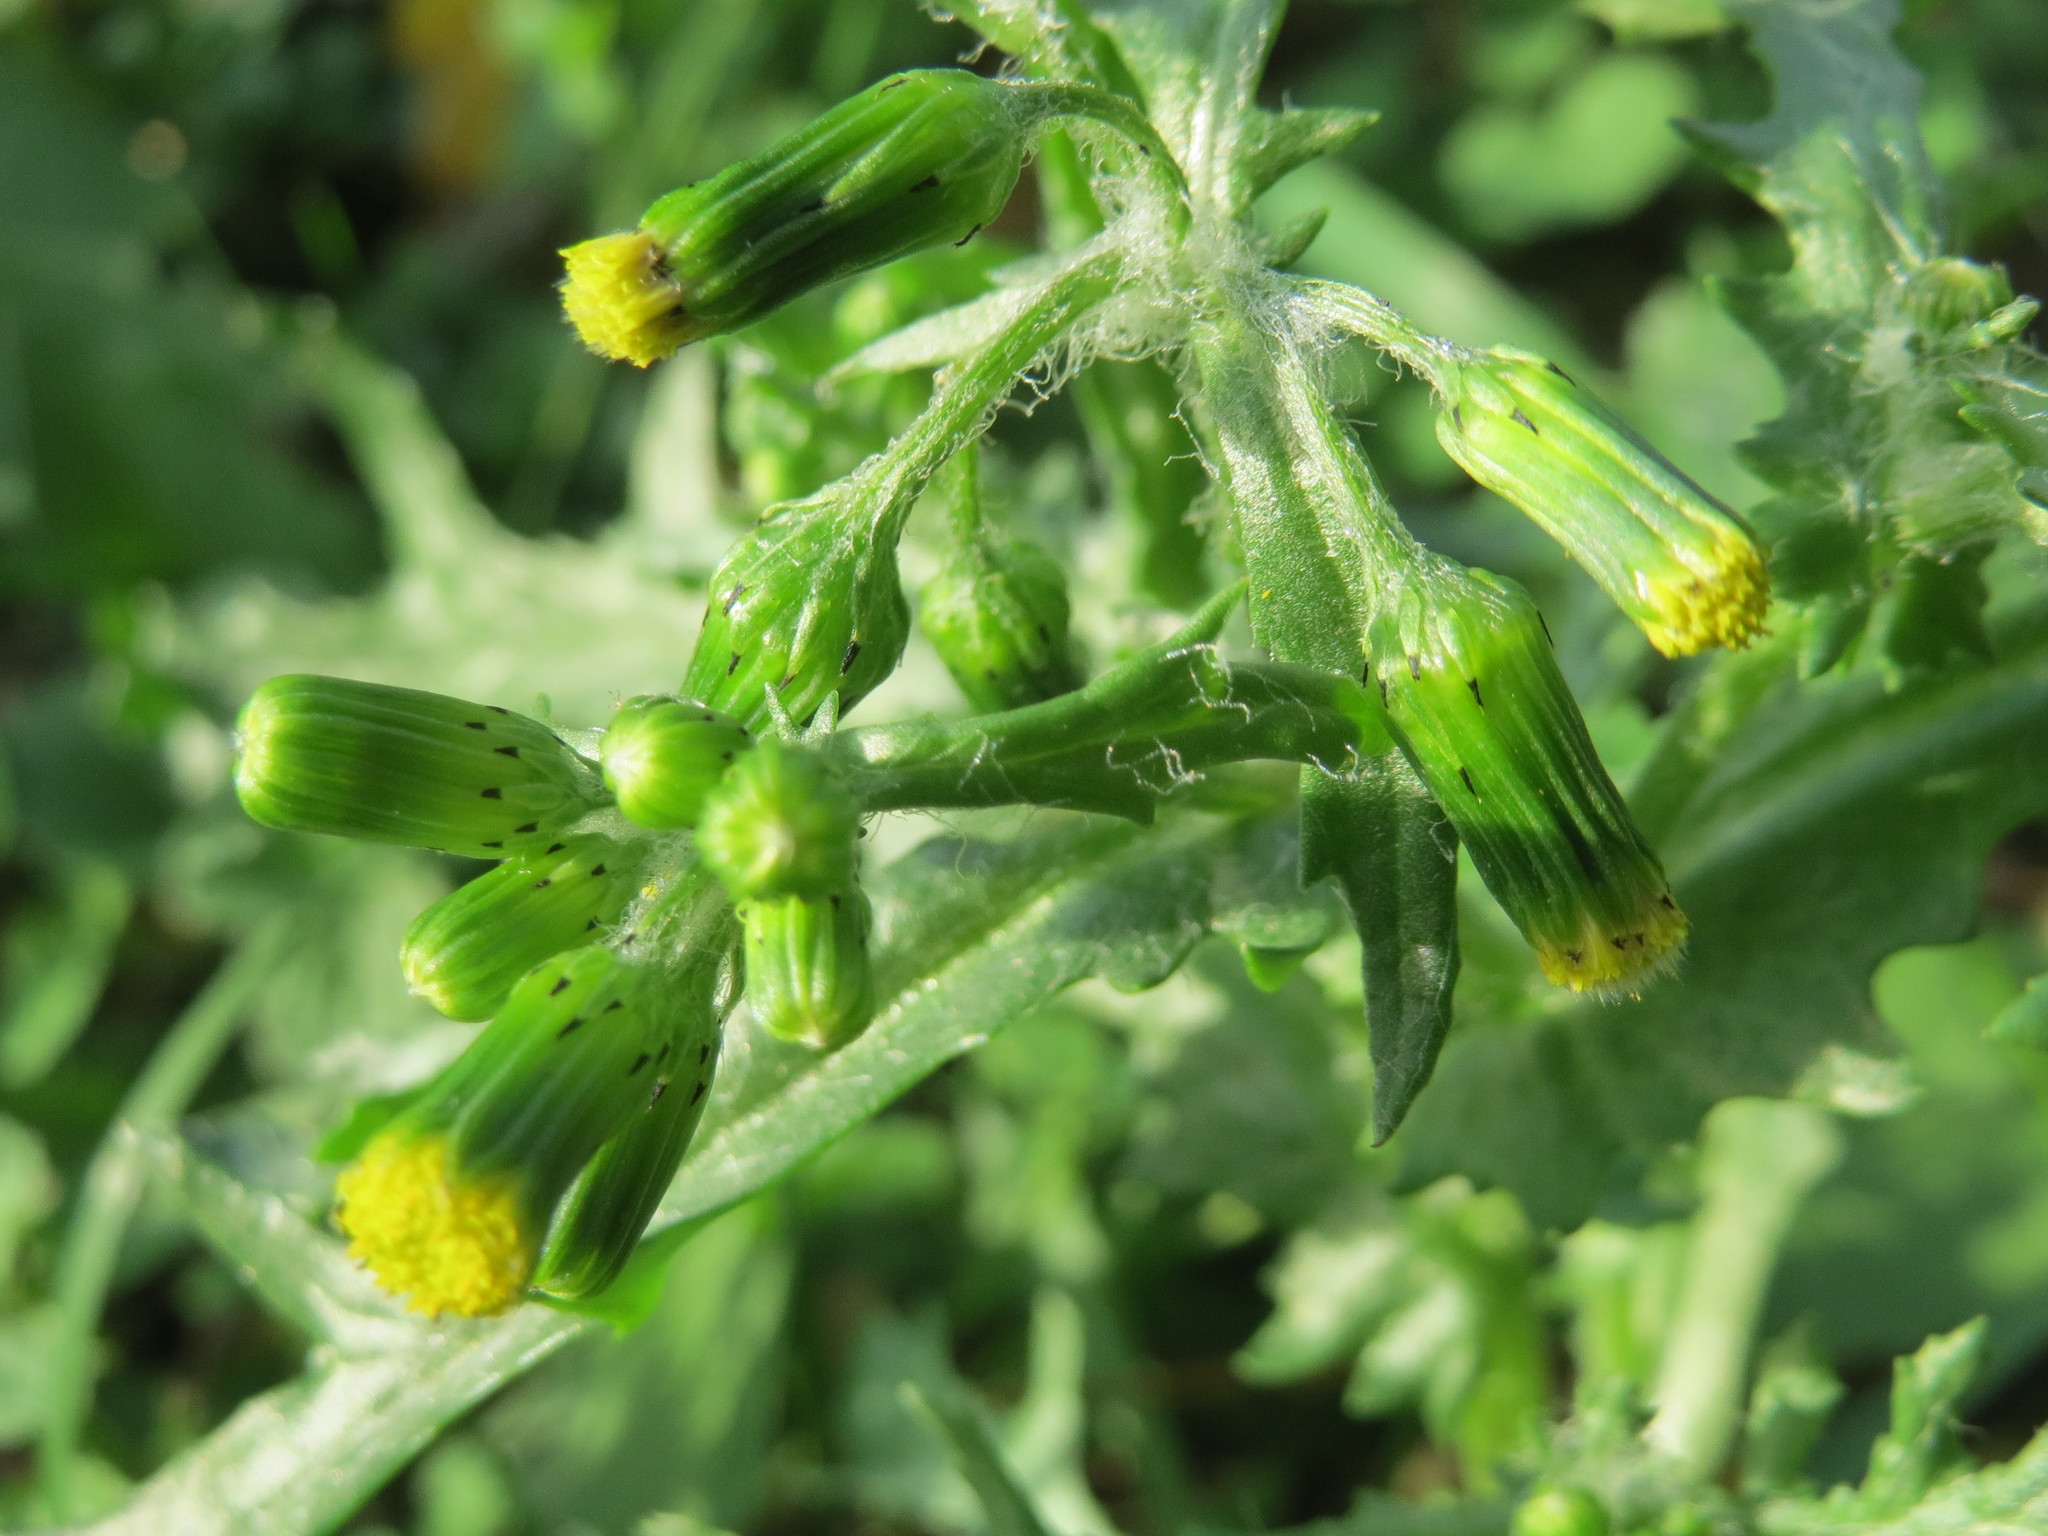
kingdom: Plantae
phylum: Tracheophyta
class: Magnoliopsida
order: Asterales
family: Asteraceae
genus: Senecio
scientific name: Senecio vulgaris
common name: Old-man-in-the-spring
